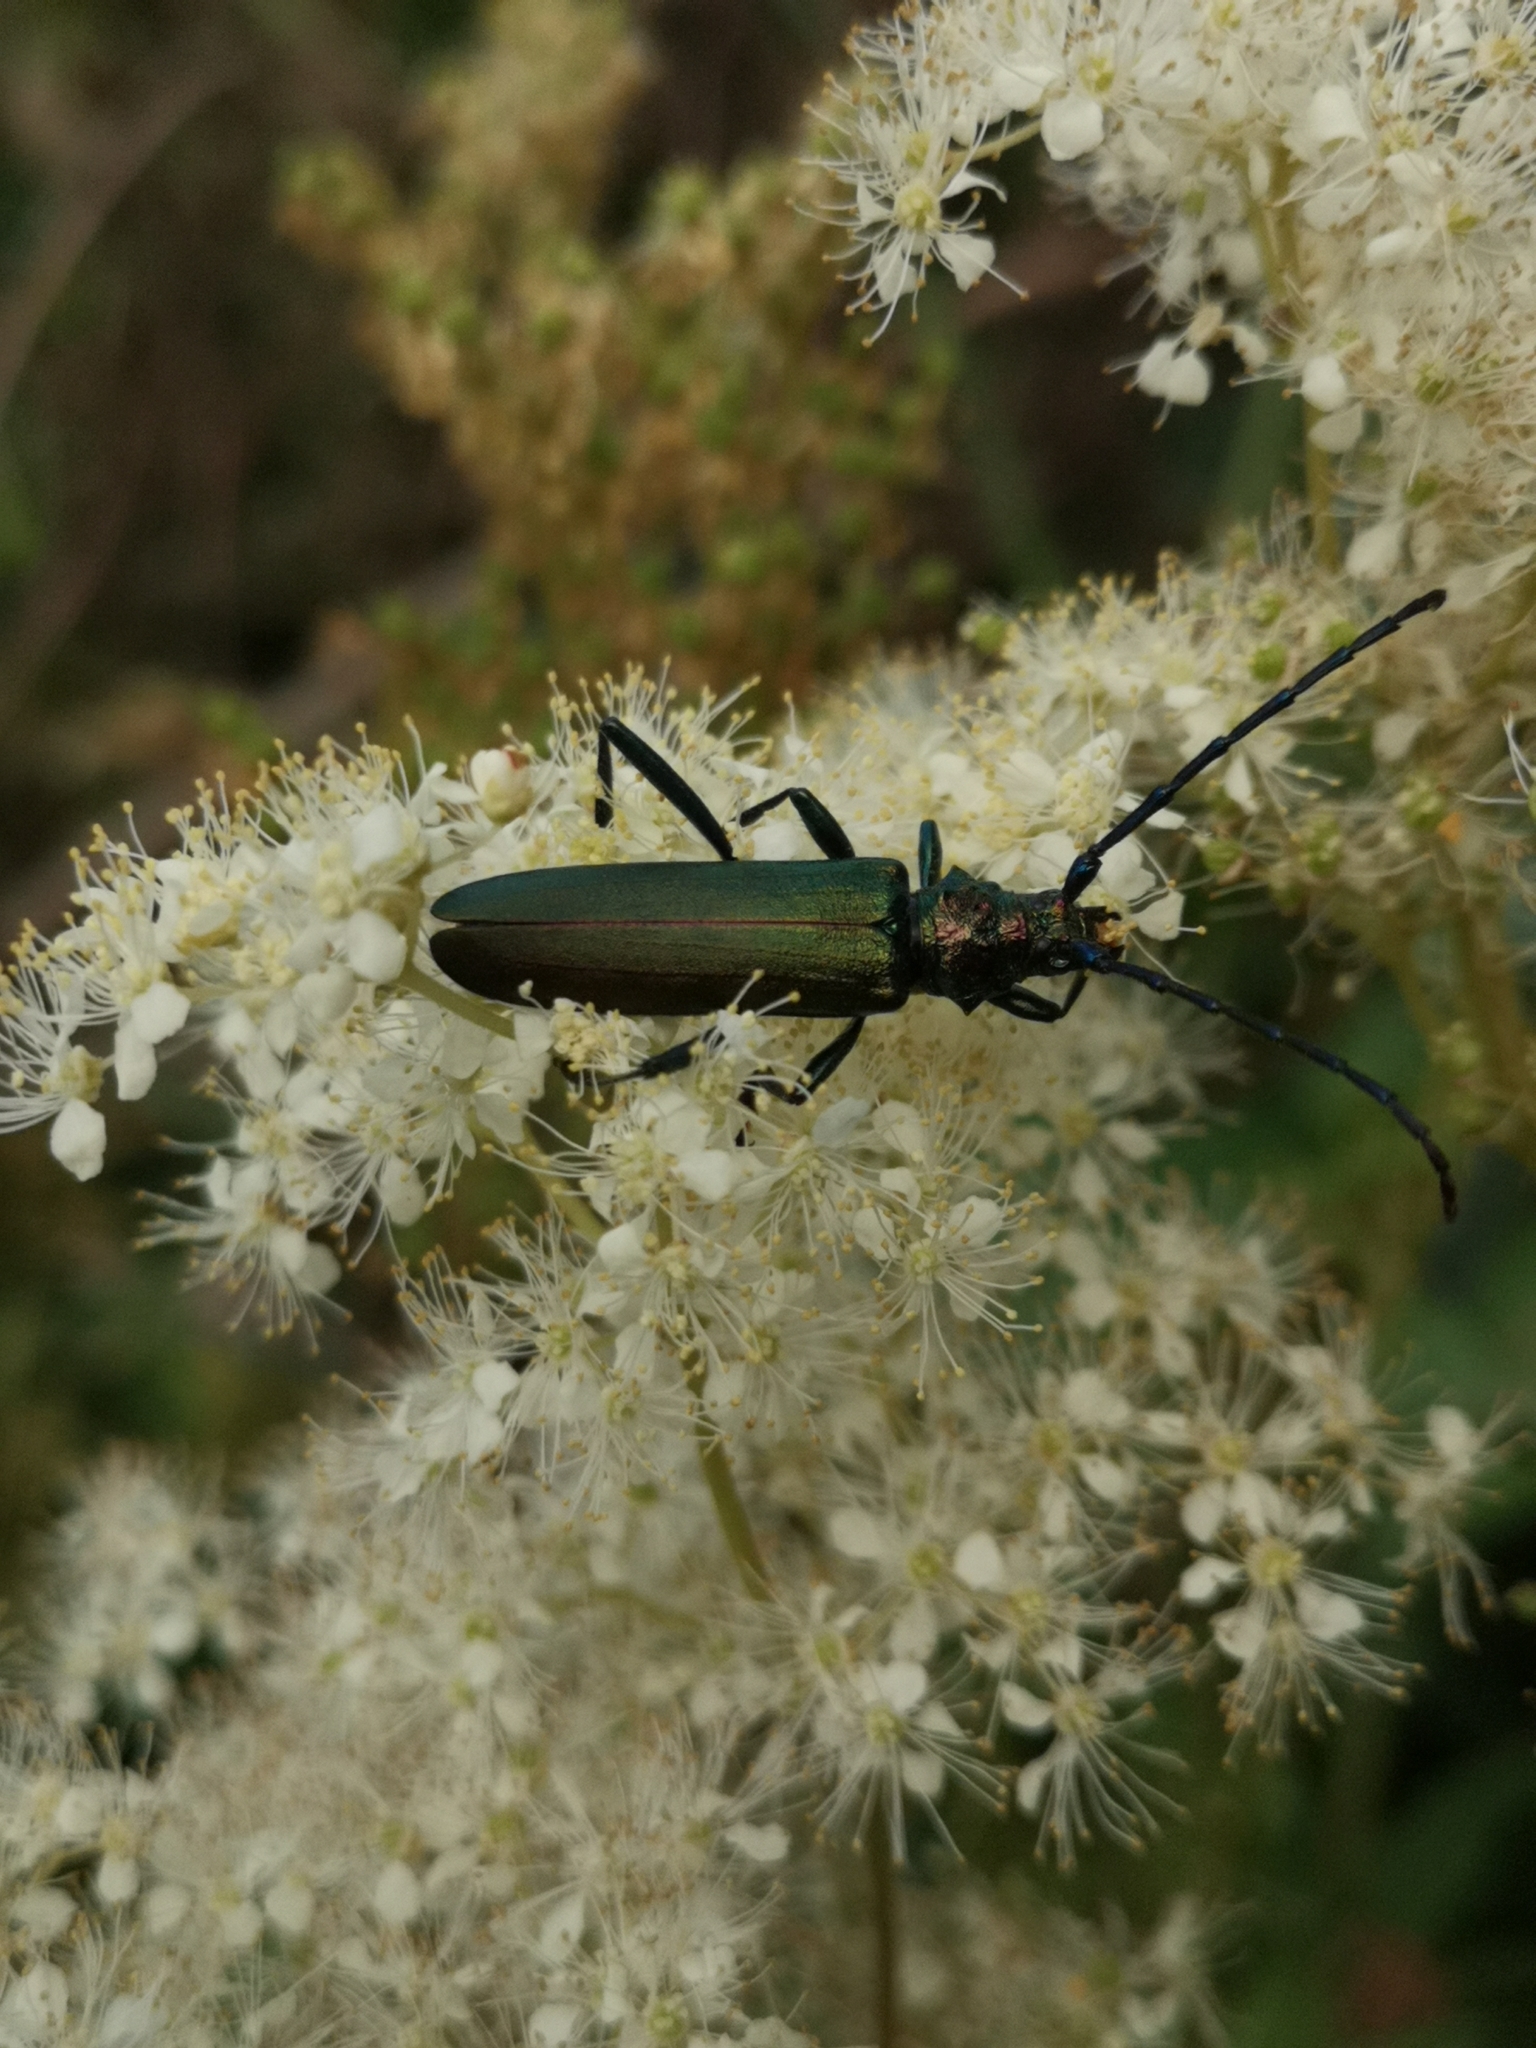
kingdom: Animalia
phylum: Arthropoda
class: Insecta
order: Coleoptera
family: Cerambycidae
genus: Aromia
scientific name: Aromia moschata
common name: Musk beetle
